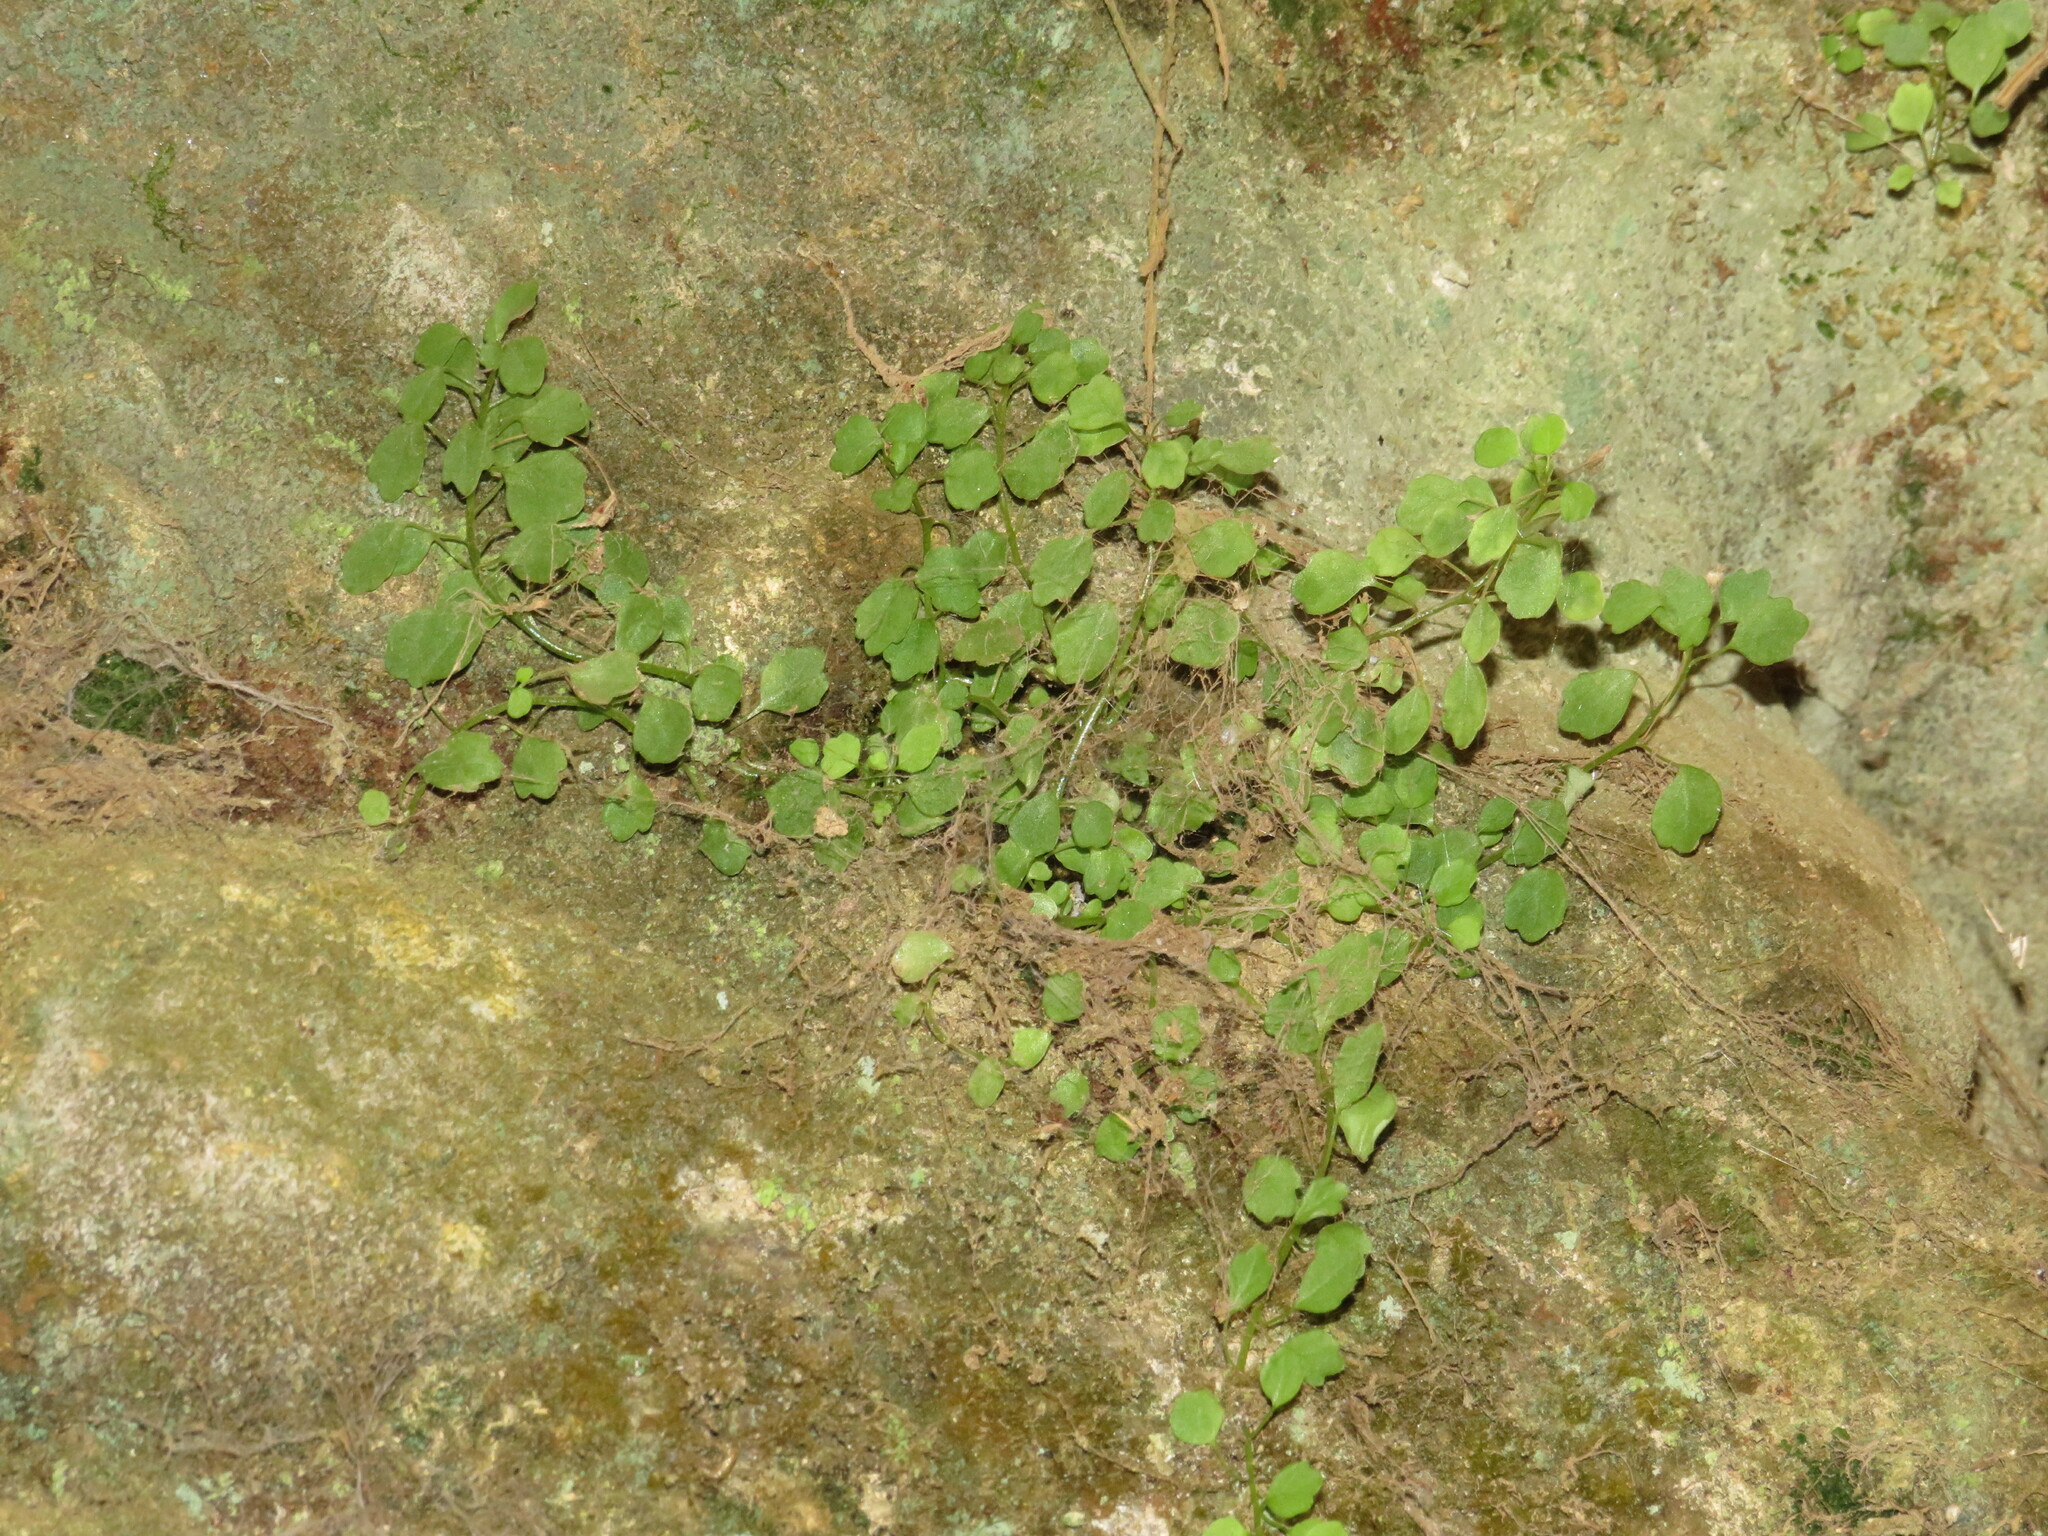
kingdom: Plantae
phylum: Tracheophyta
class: Magnoliopsida
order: Asterales
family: Campanulaceae
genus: Wimmerella
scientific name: Wimmerella pygmaea
